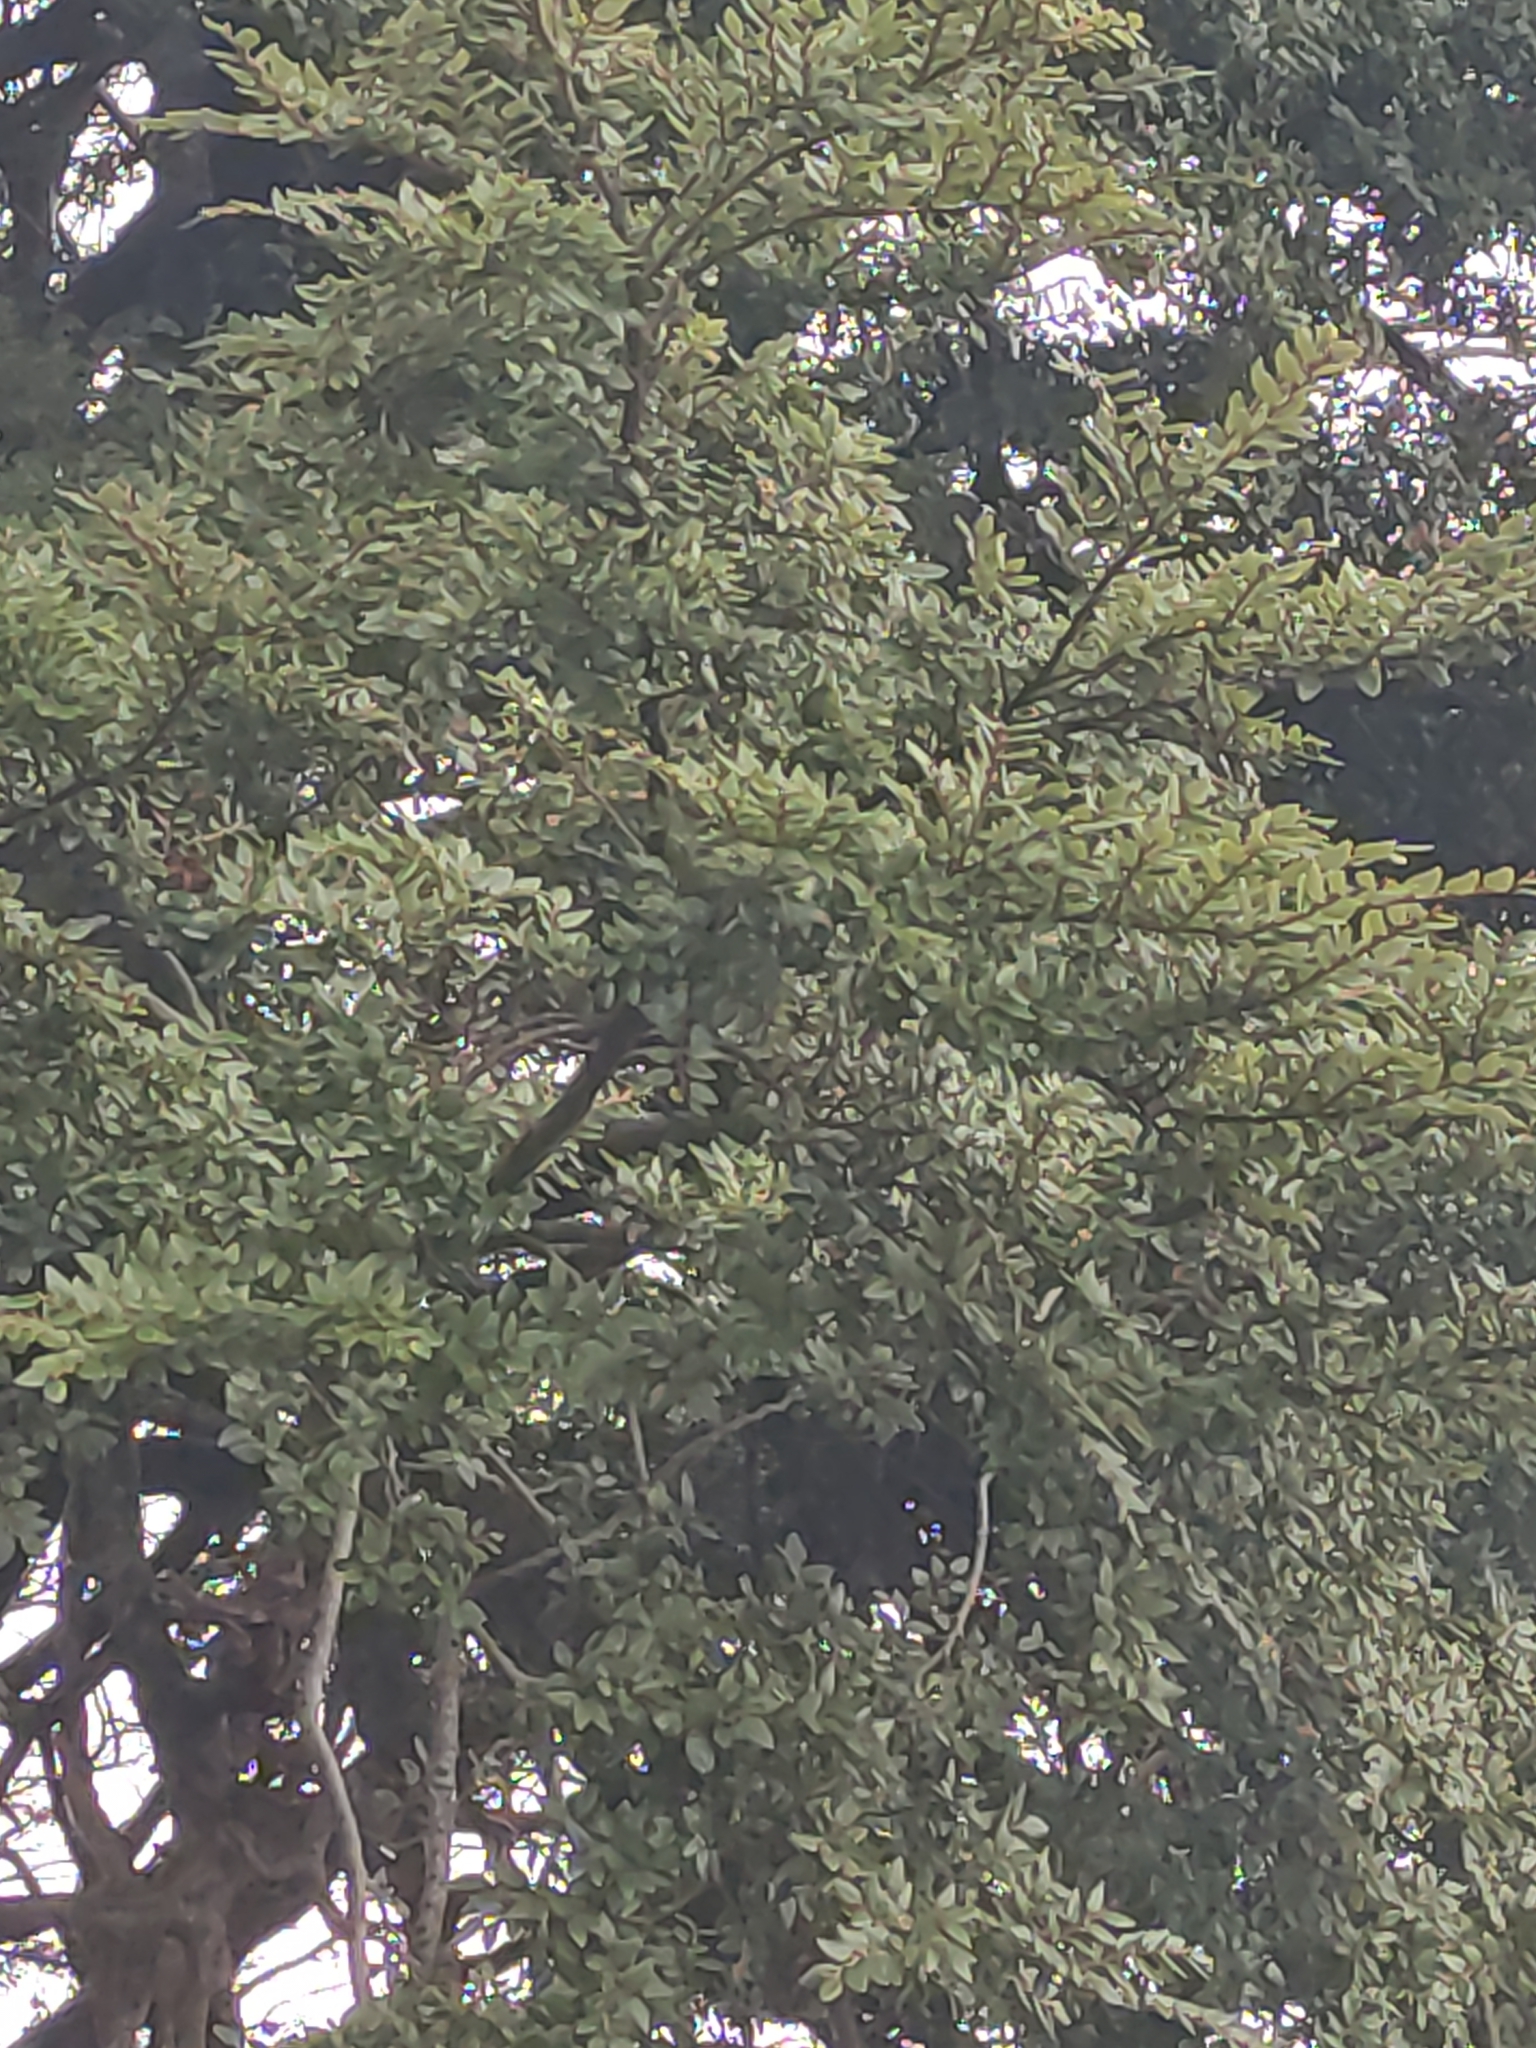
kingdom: Plantae
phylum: Tracheophyta
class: Magnoliopsida
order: Fagales
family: Nothofagaceae
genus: Nothofagus
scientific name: Nothofagus cliffortioides
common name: Mountain beech
